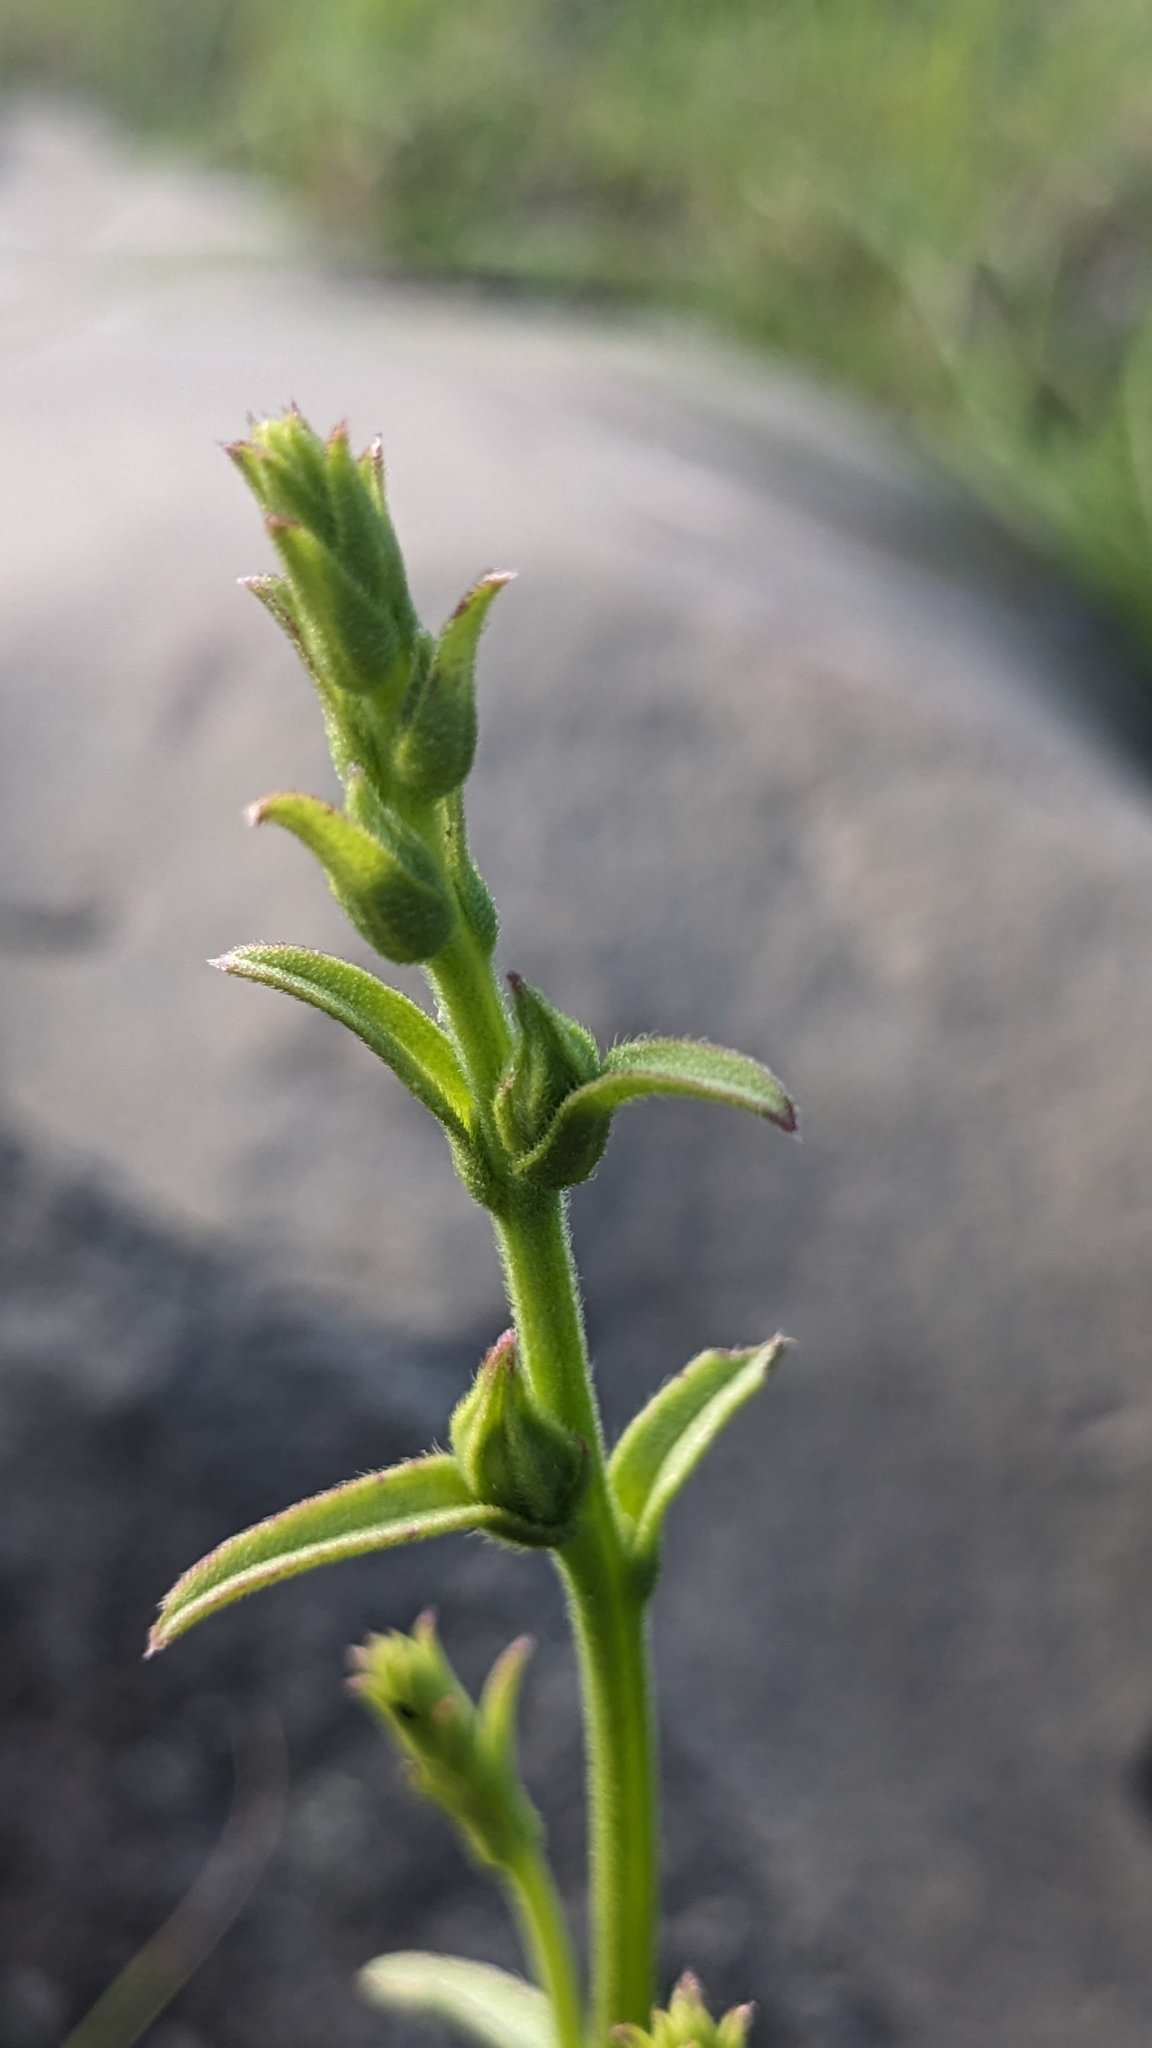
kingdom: Plantae
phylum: Tracheophyta
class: Magnoliopsida
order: Lamiales
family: Orobanchaceae
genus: Centranthera
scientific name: Centranthera cochinchinensis
